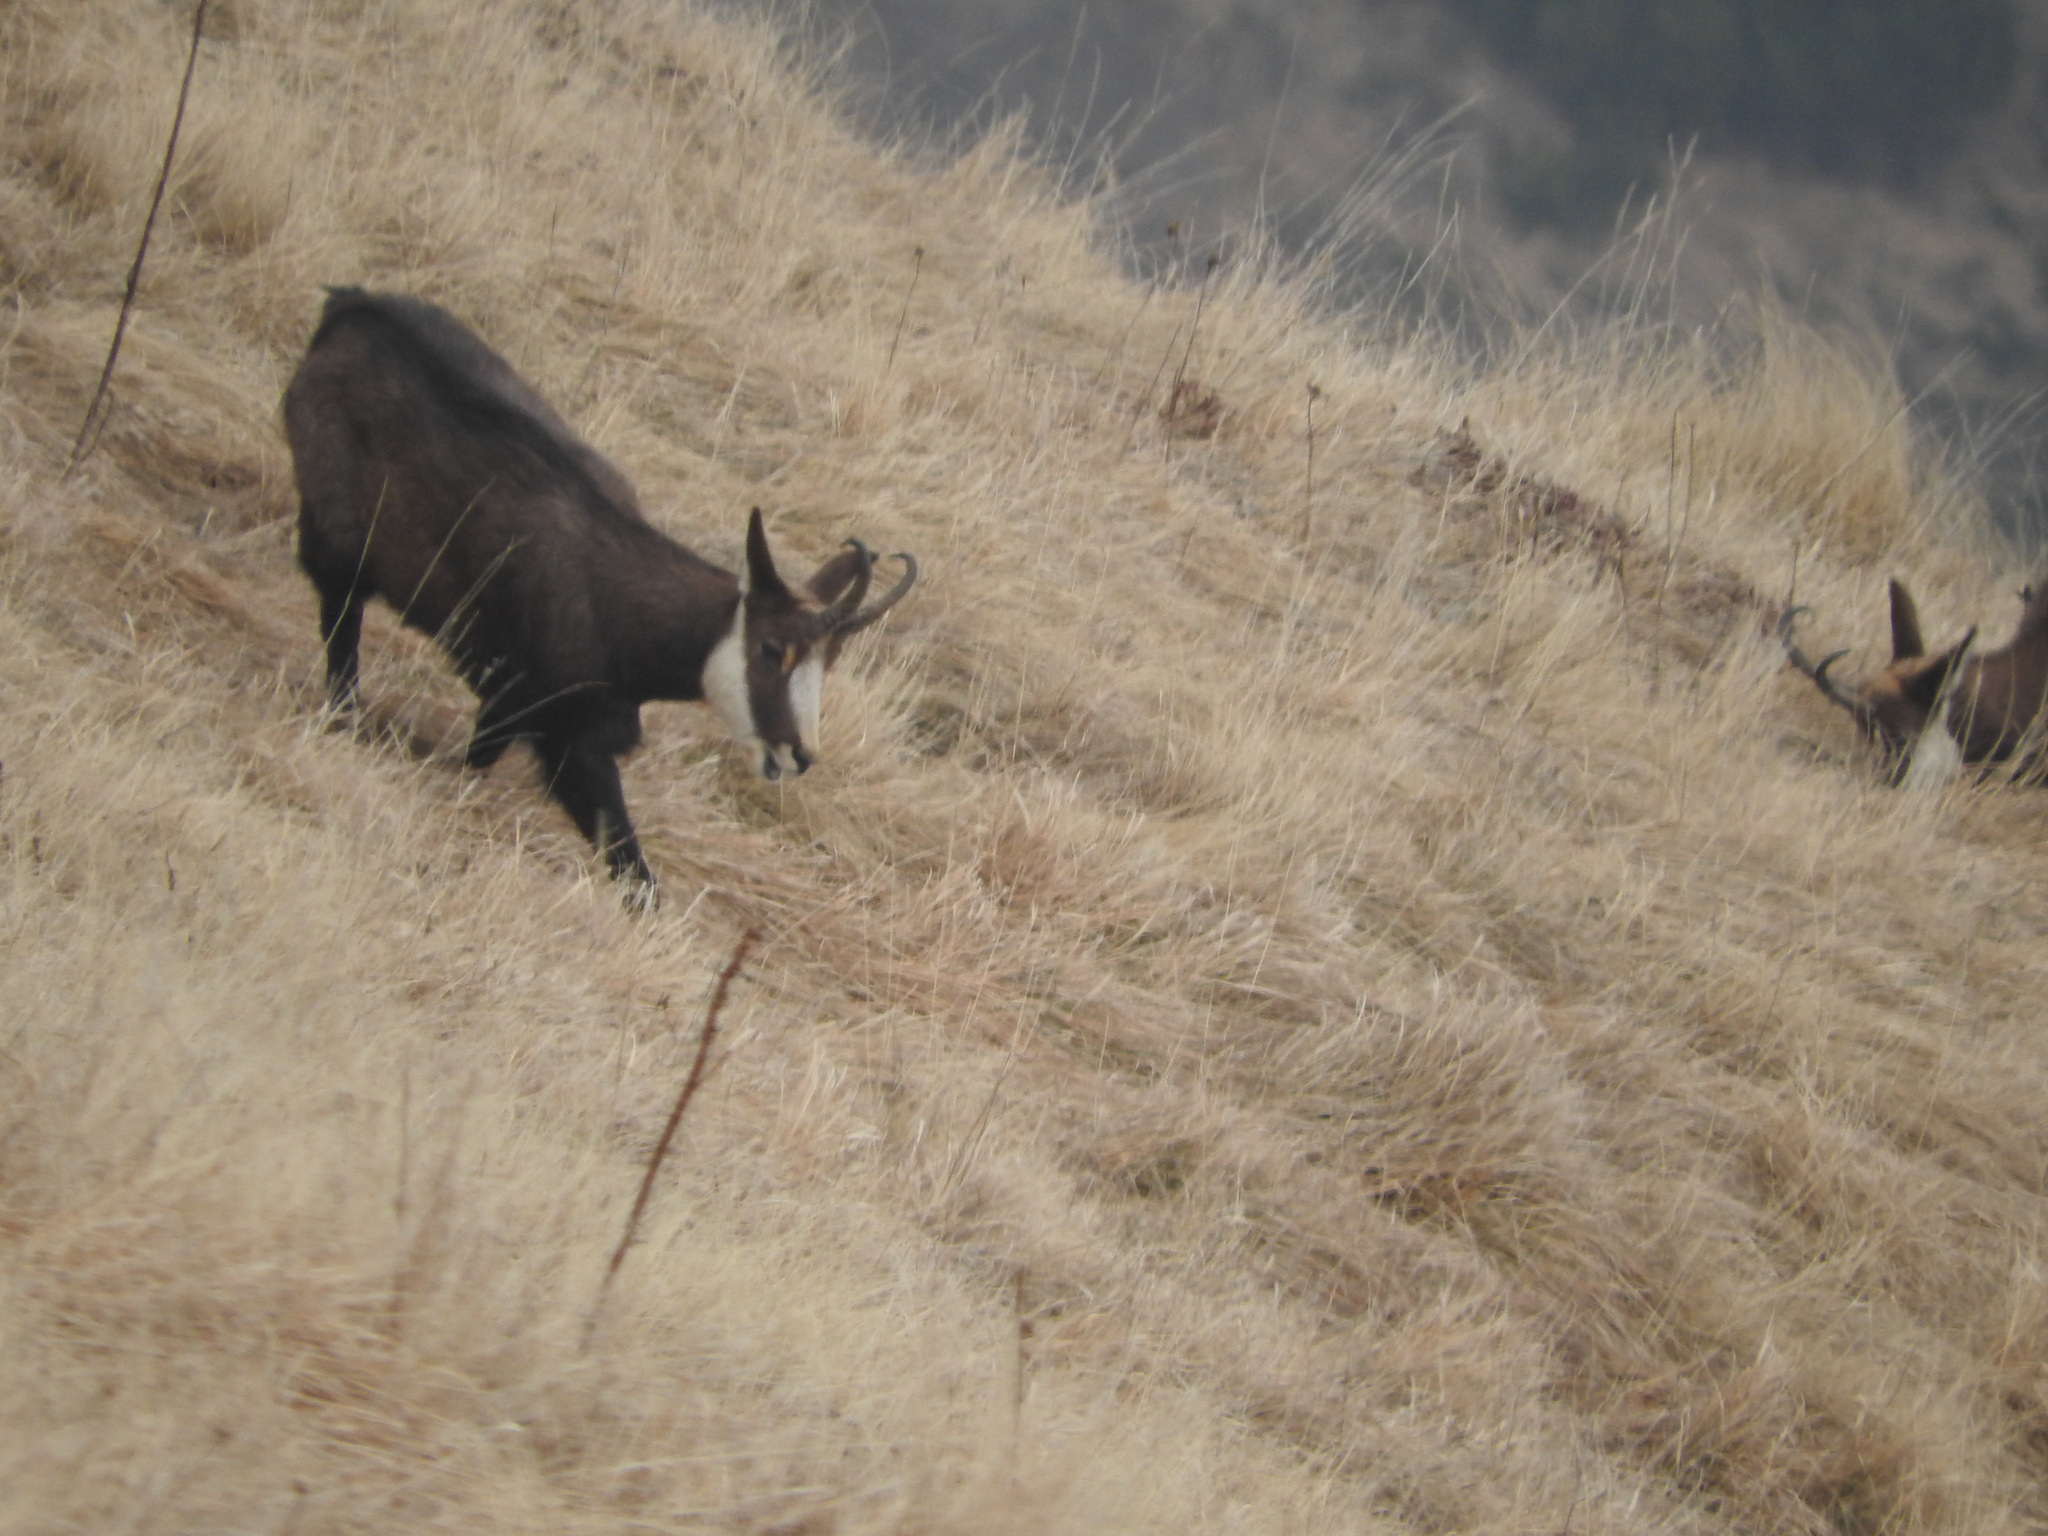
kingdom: Animalia
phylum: Chordata
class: Mammalia
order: Artiodactyla
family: Bovidae
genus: Rupicapra
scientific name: Rupicapra rupicapra
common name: Chamois
